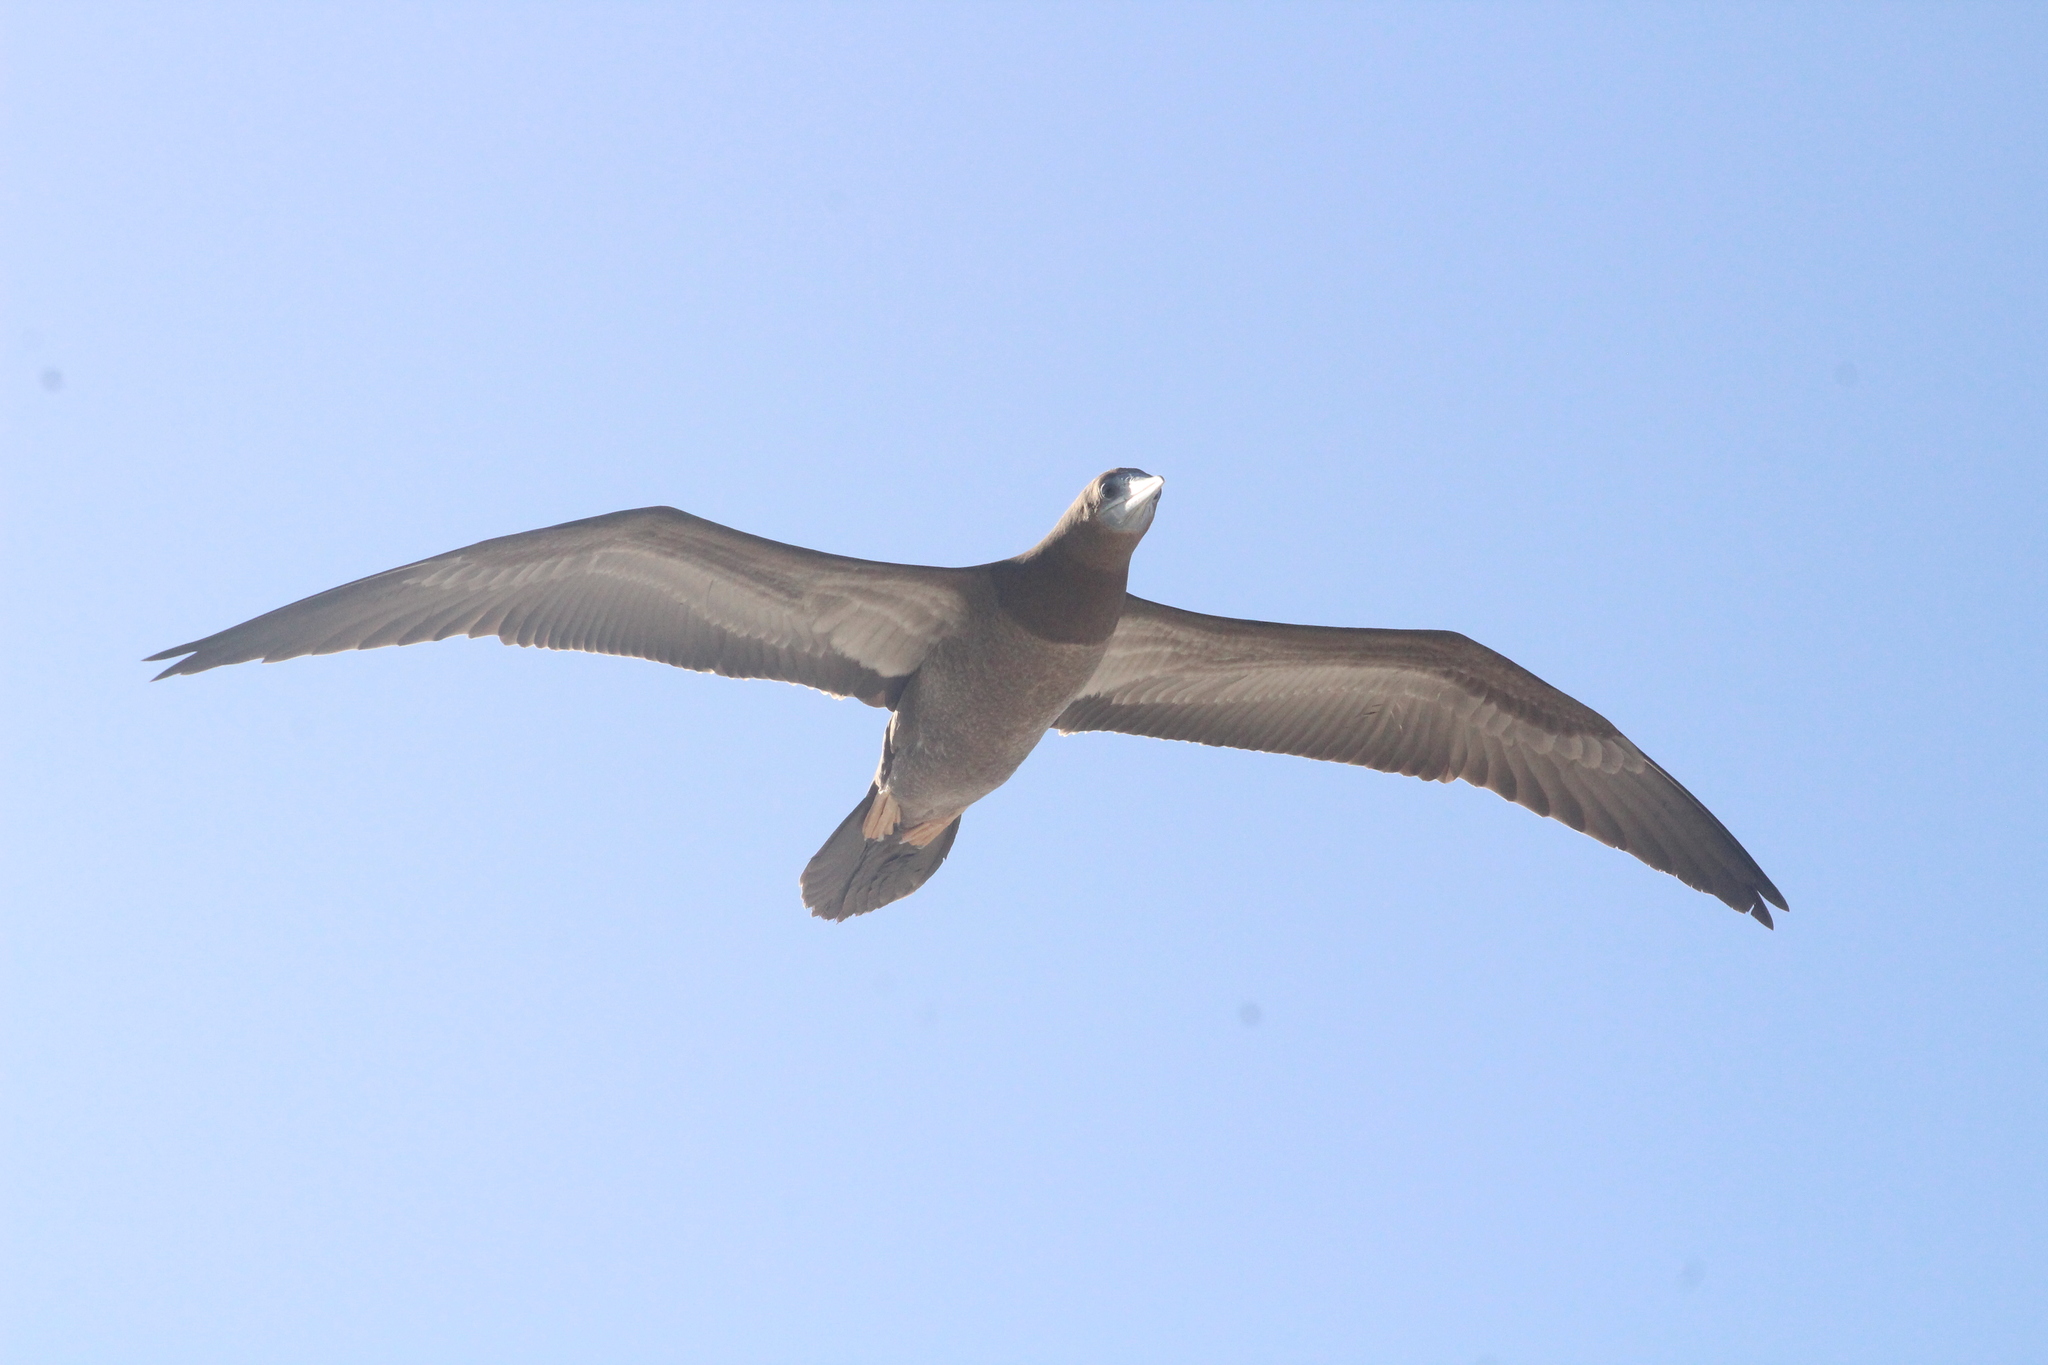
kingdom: Animalia
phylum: Chordata
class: Aves
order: Suliformes
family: Sulidae
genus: Sula
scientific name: Sula leucogaster
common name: Brown booby
